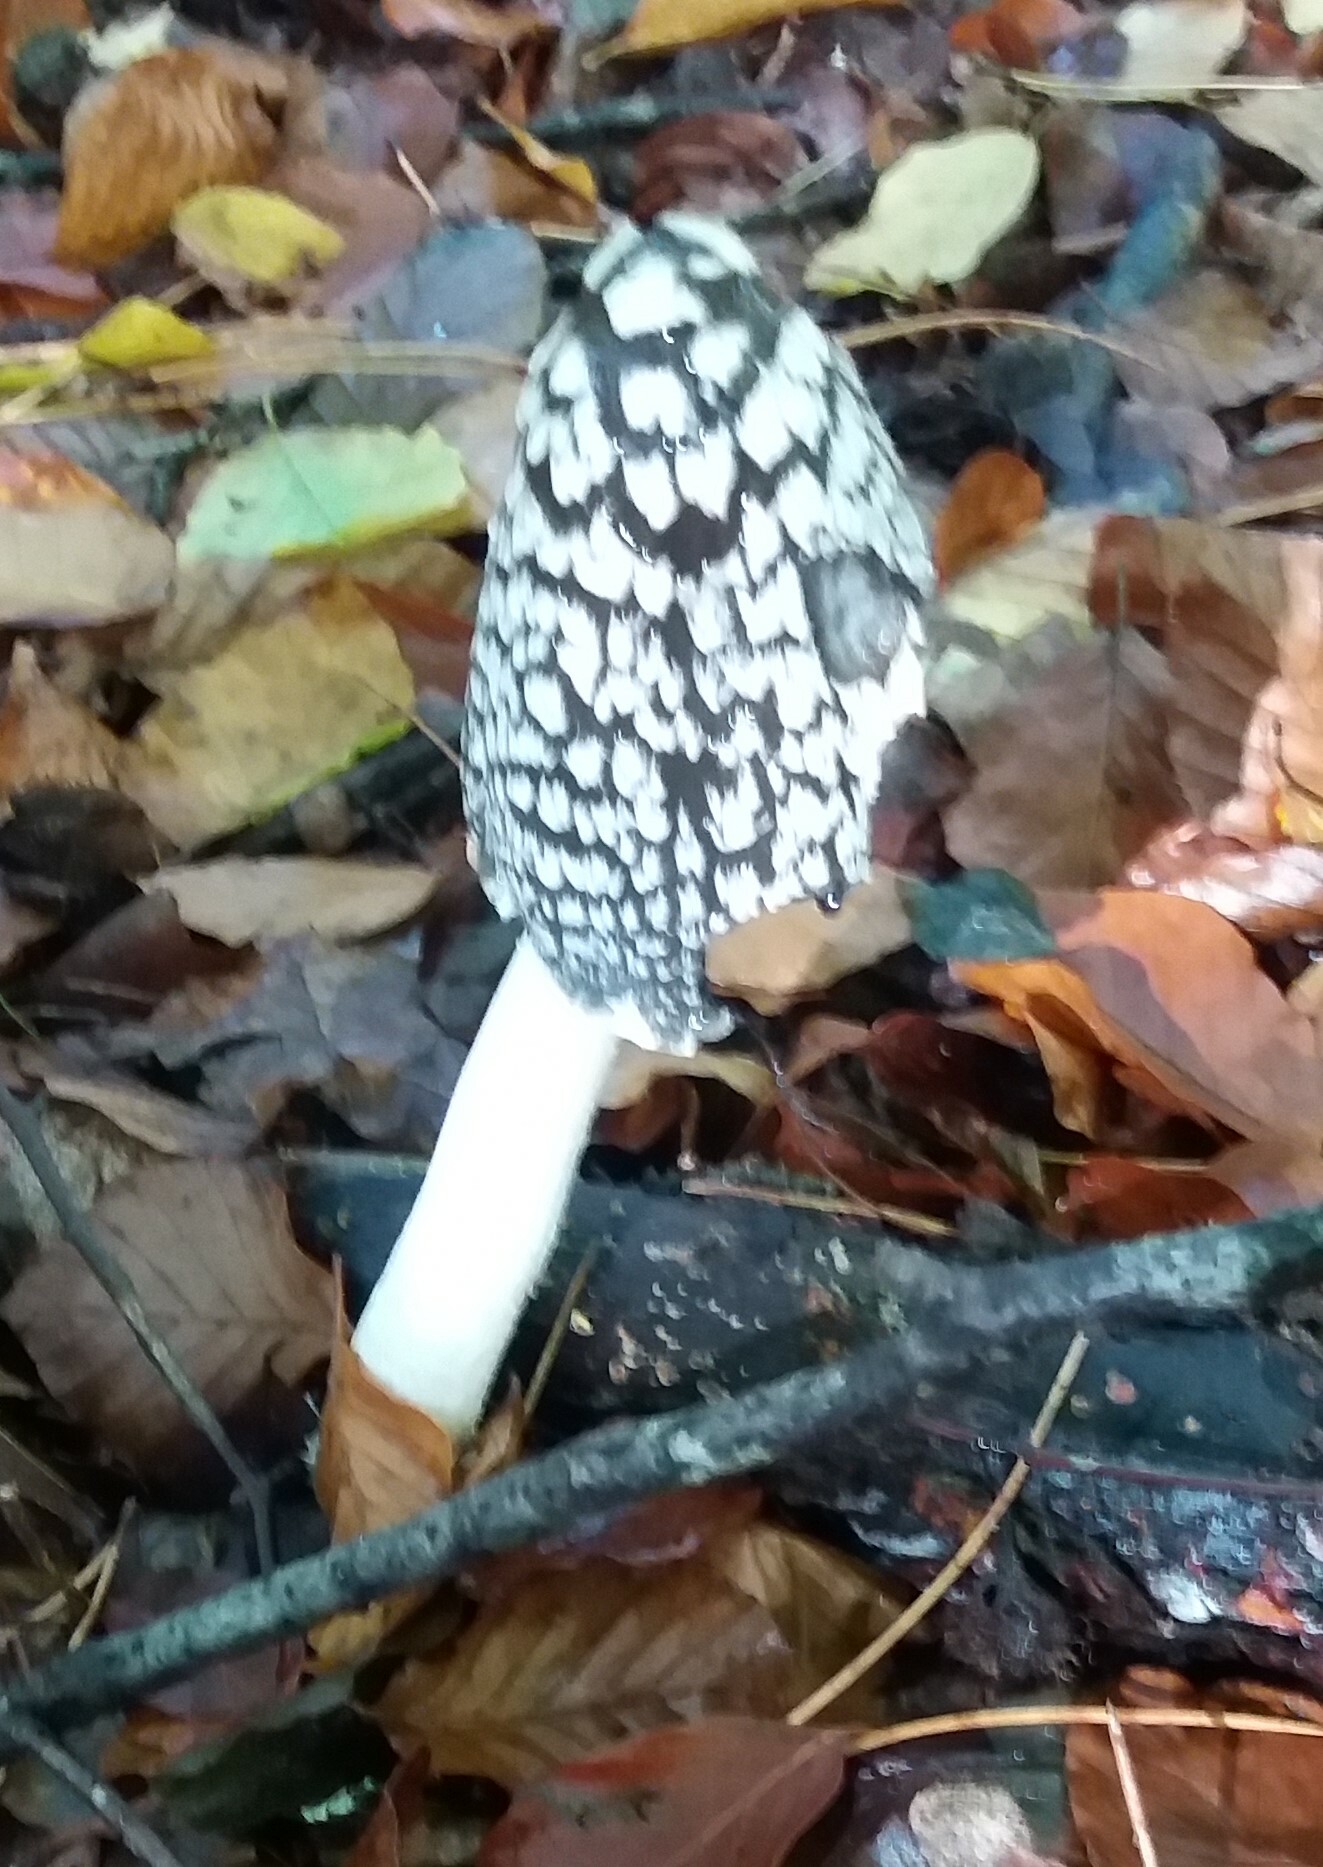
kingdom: Fungi
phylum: Basidiomycota
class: Agaricomycetes
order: Agaricales
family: Psathyrellaceae
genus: Coprinopsis
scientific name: Coprinopsis picacea
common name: Magpie inkcap
